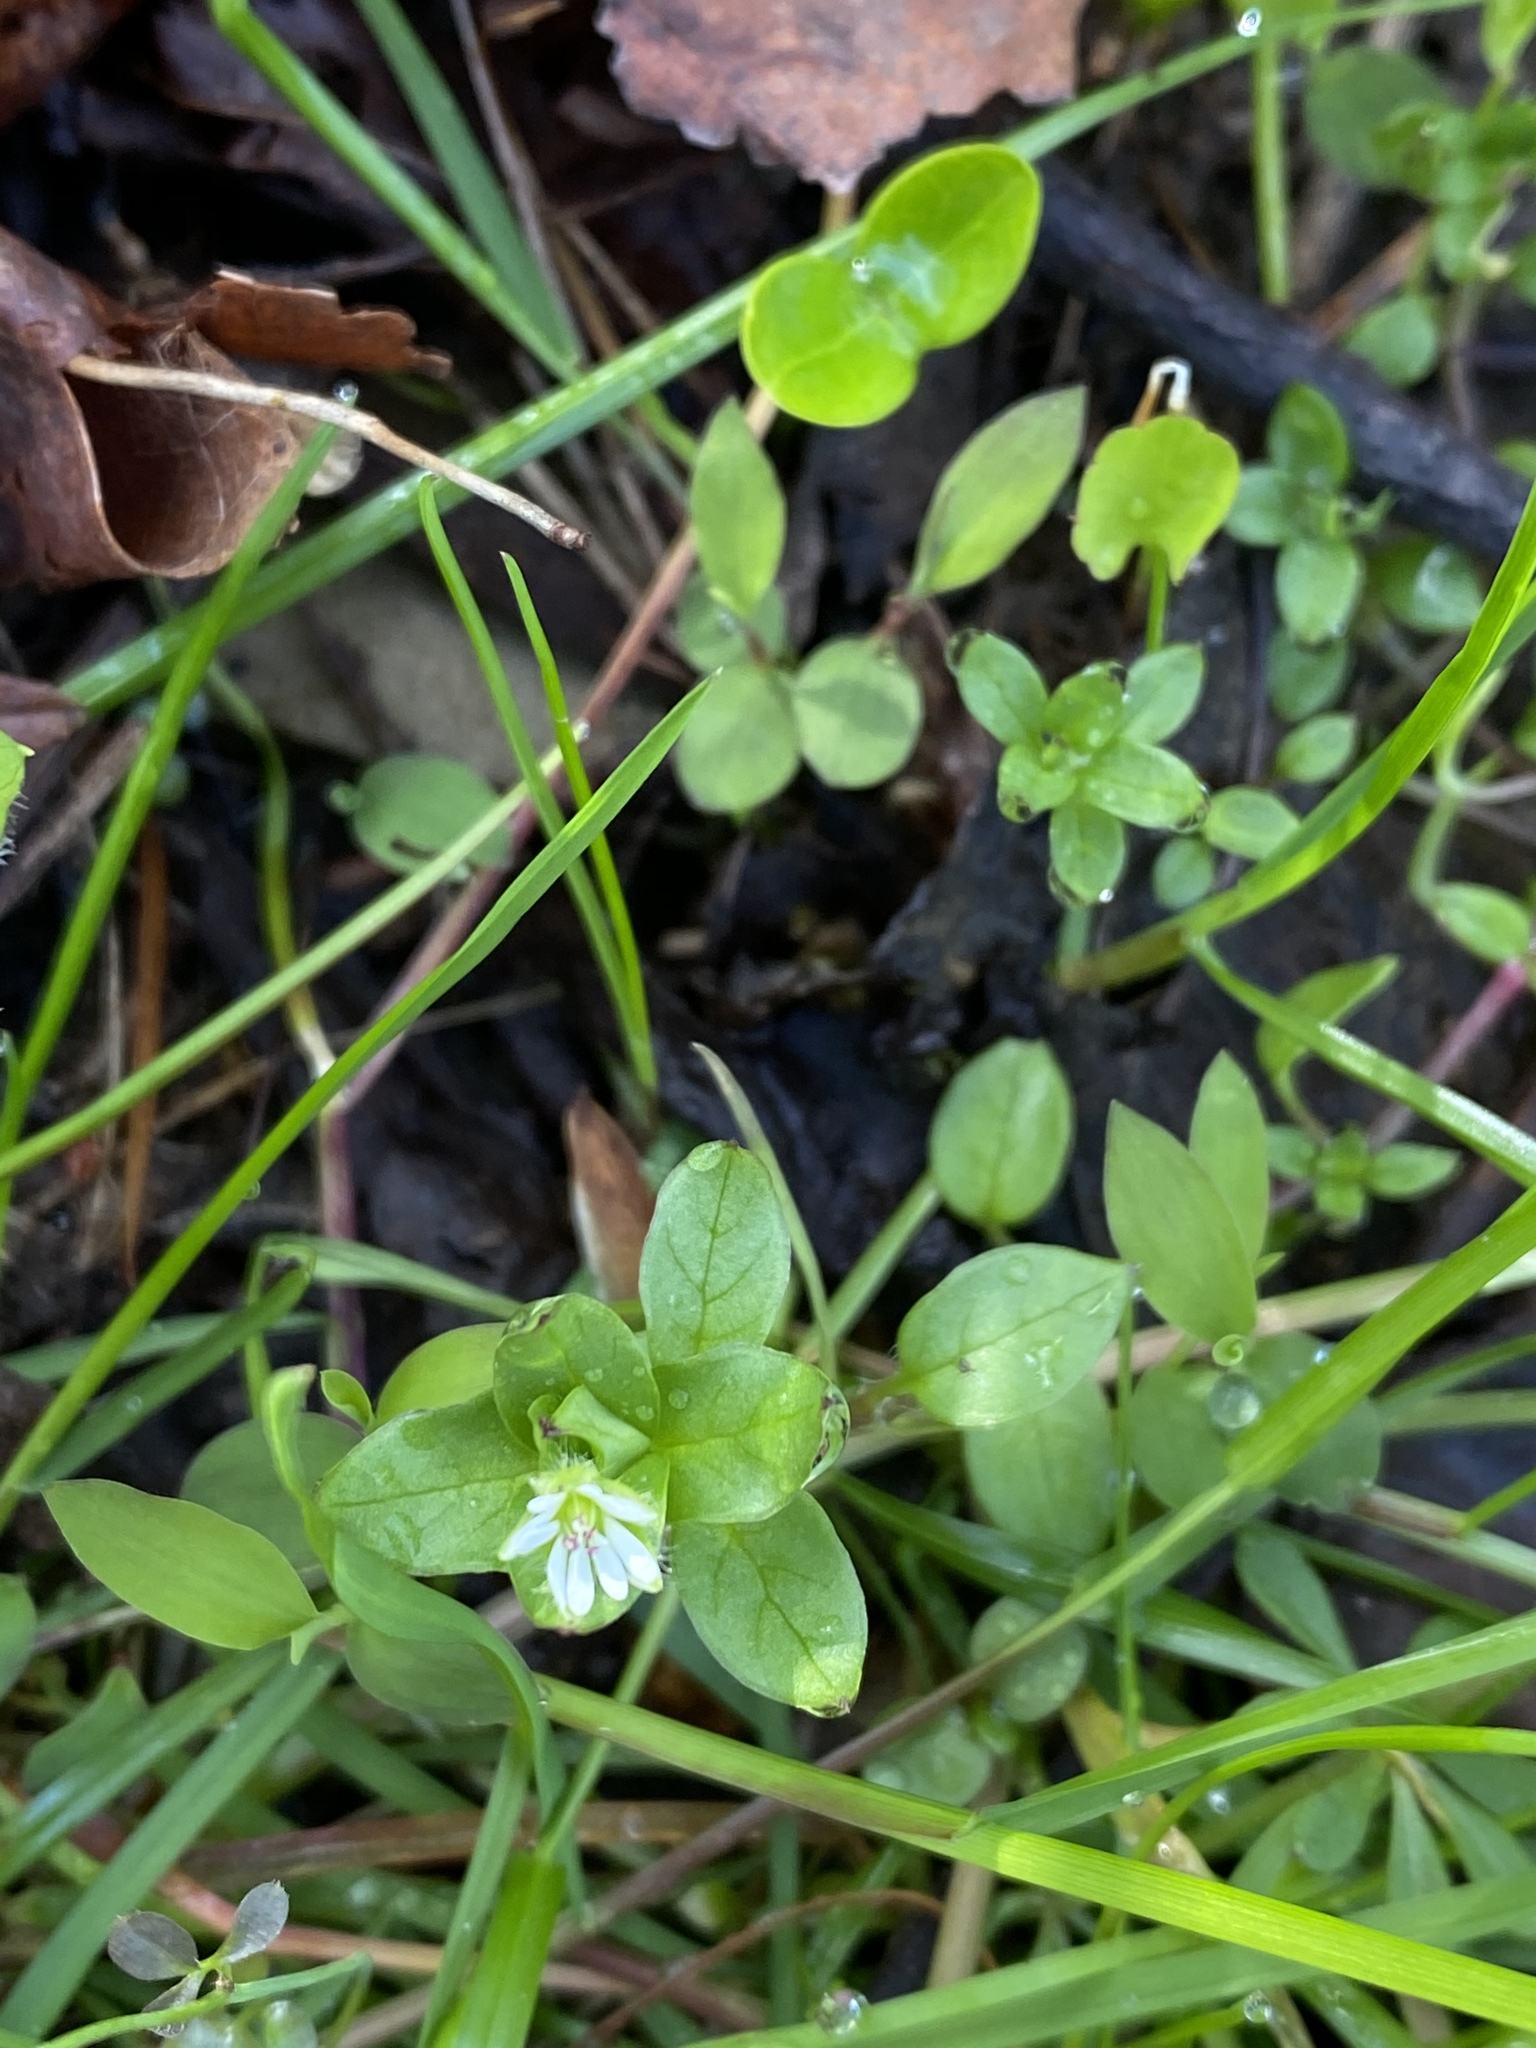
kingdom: Plantae
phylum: Tracheophyta
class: Magnoliopsida
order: Caryophyllales
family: Caryophyllaceae
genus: Stellaria
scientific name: Stellaria media
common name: Common chickweed
